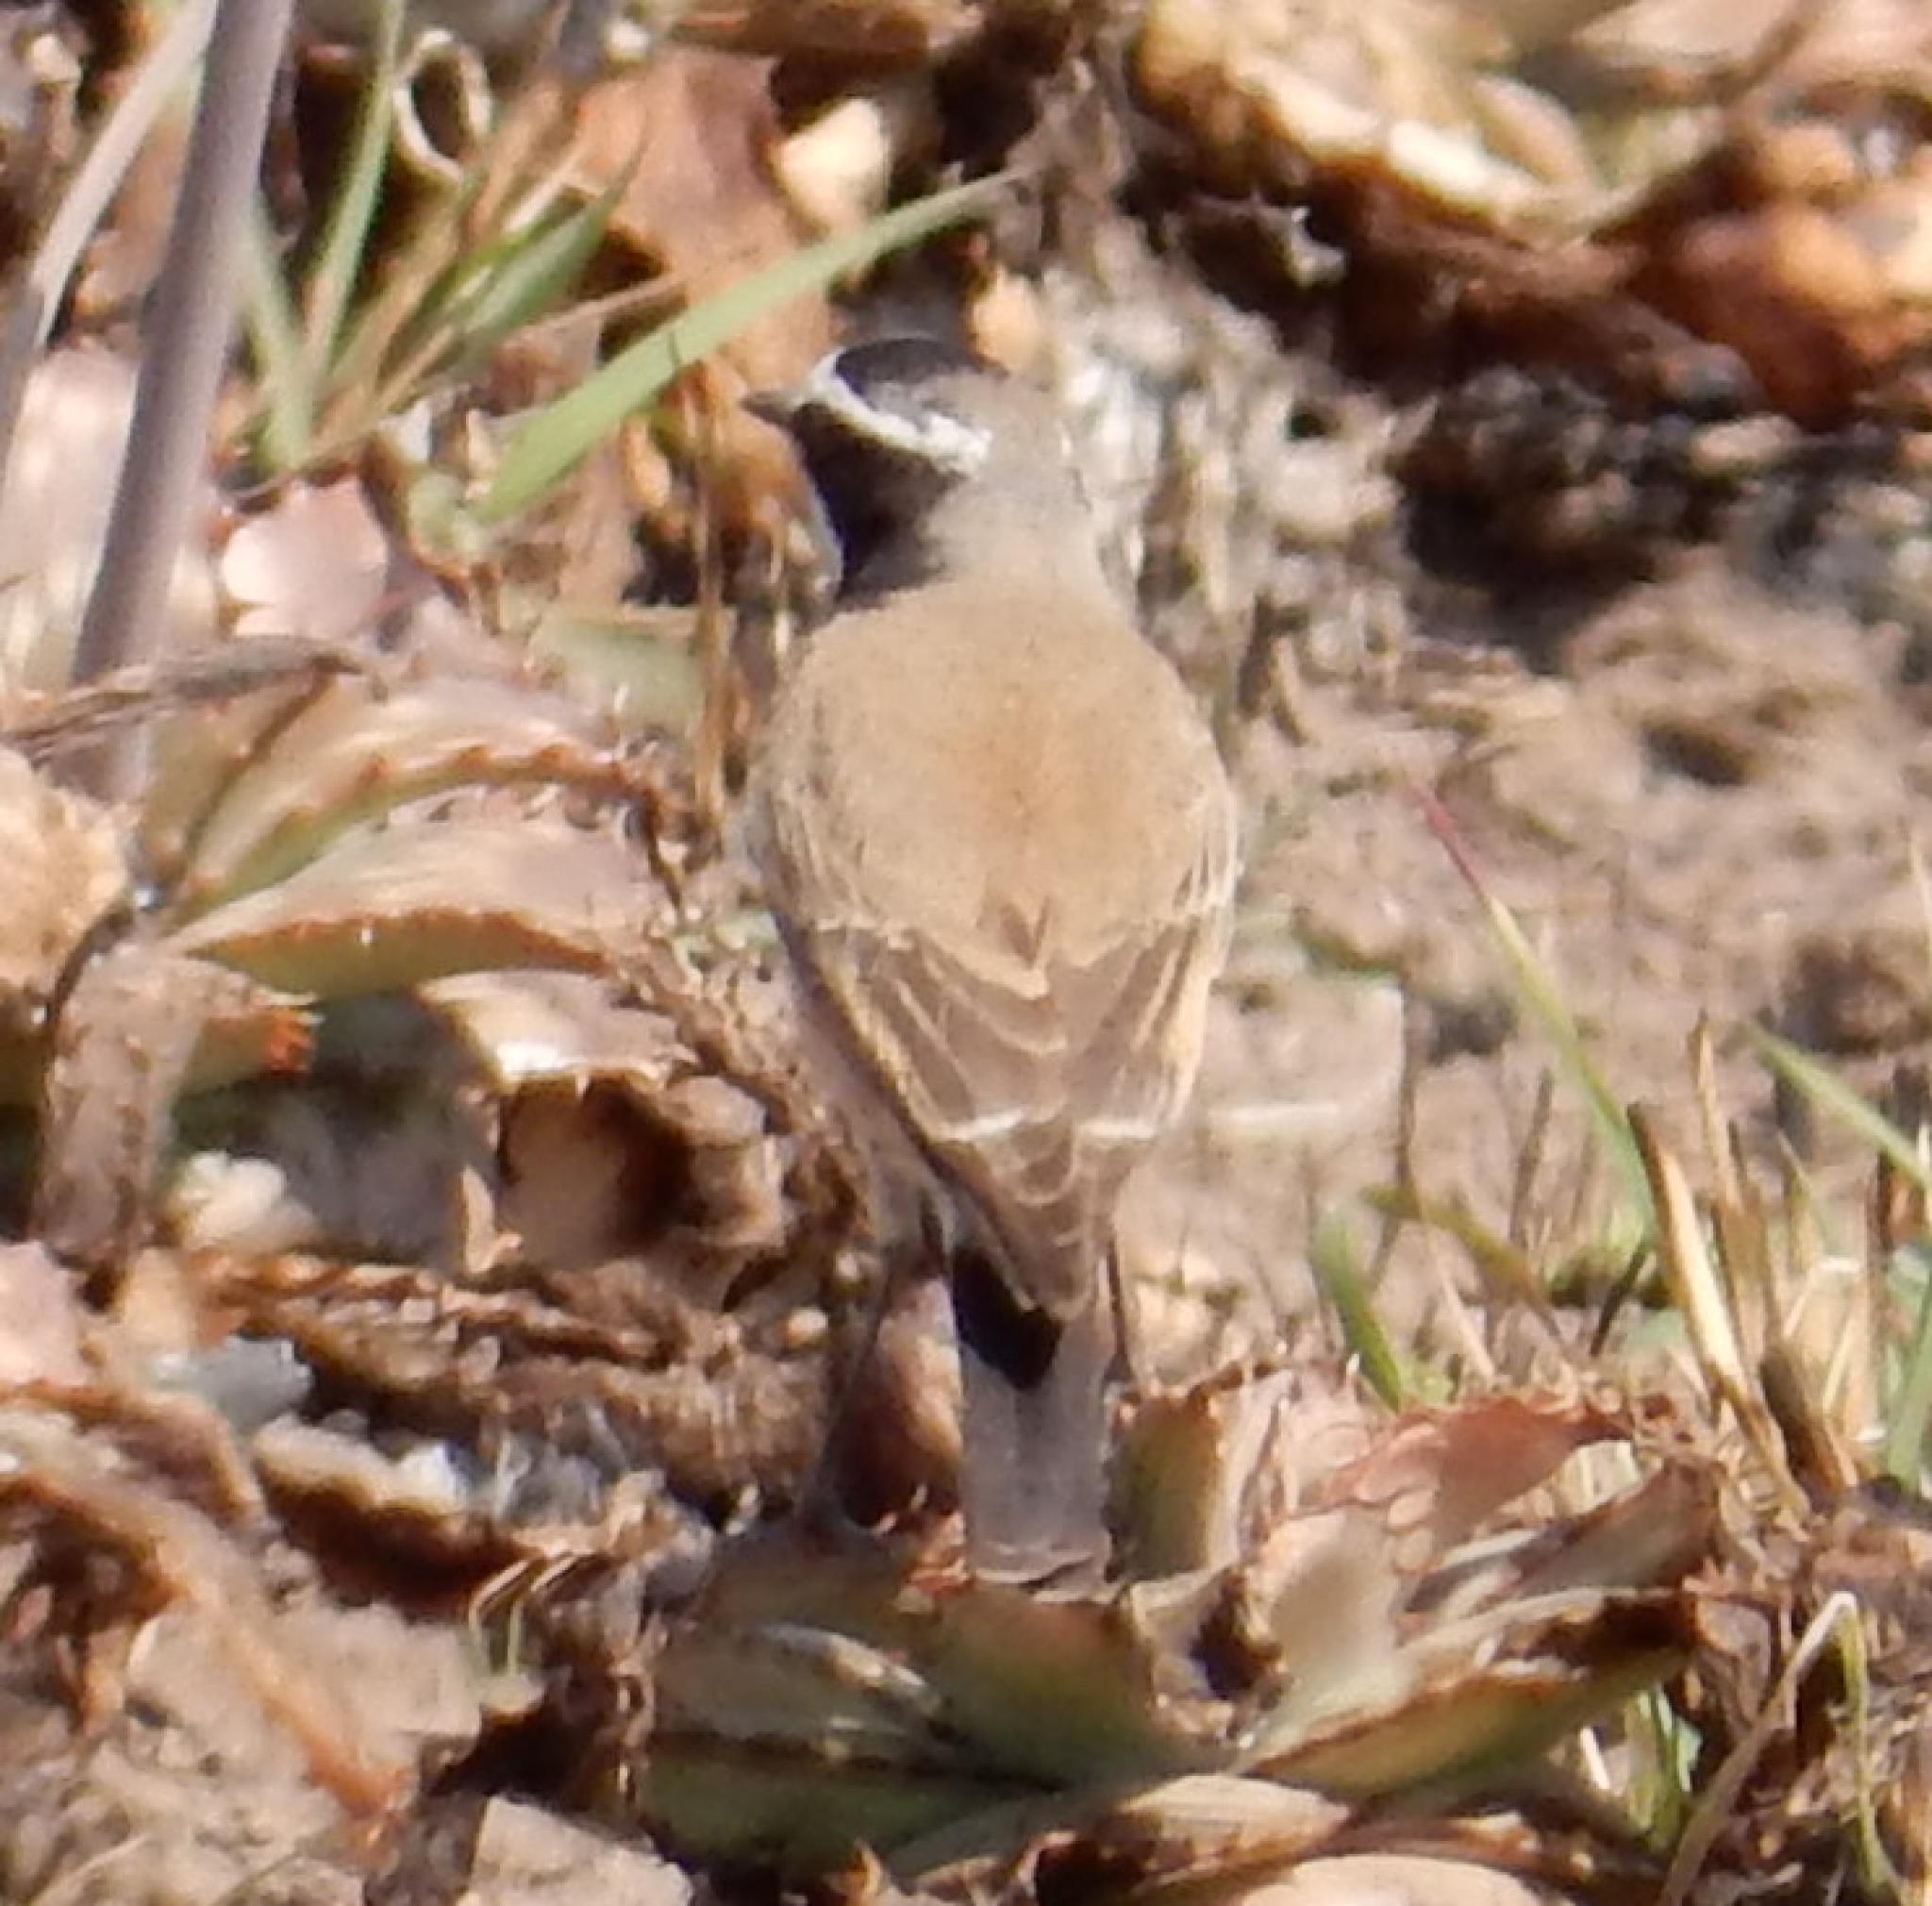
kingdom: Animalia
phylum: Chordata
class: Aves
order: Passeriformes
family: Muscicapidae
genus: Oenanthe
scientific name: Oenanthe pileata
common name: Capped wheatear
